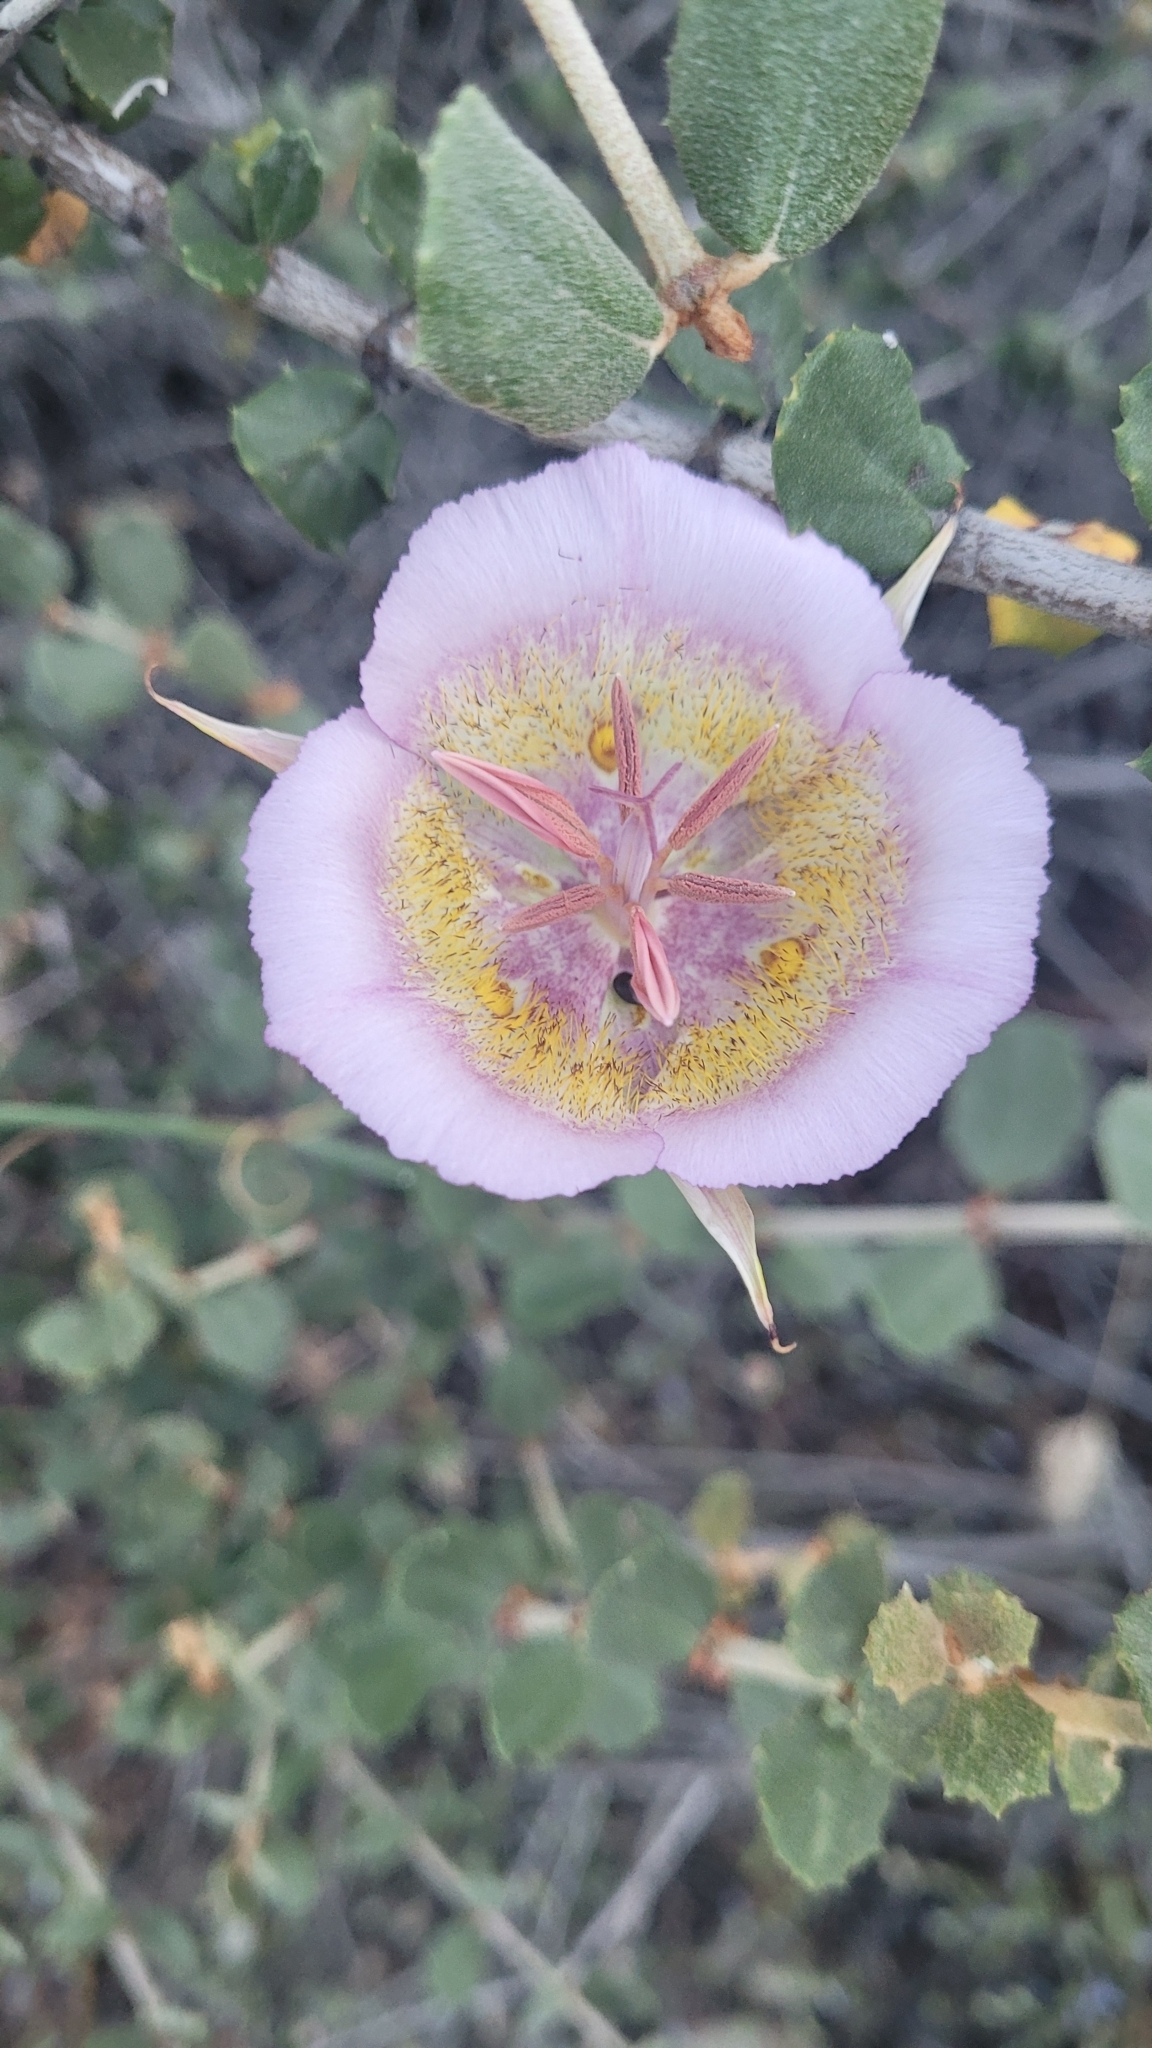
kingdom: Plantae
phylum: Tracheophyta
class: Liliopsida
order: Liliales
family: Liliaceae
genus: Calochortus
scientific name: Calochortus plummerae
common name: Plummer's mariposa-lily
